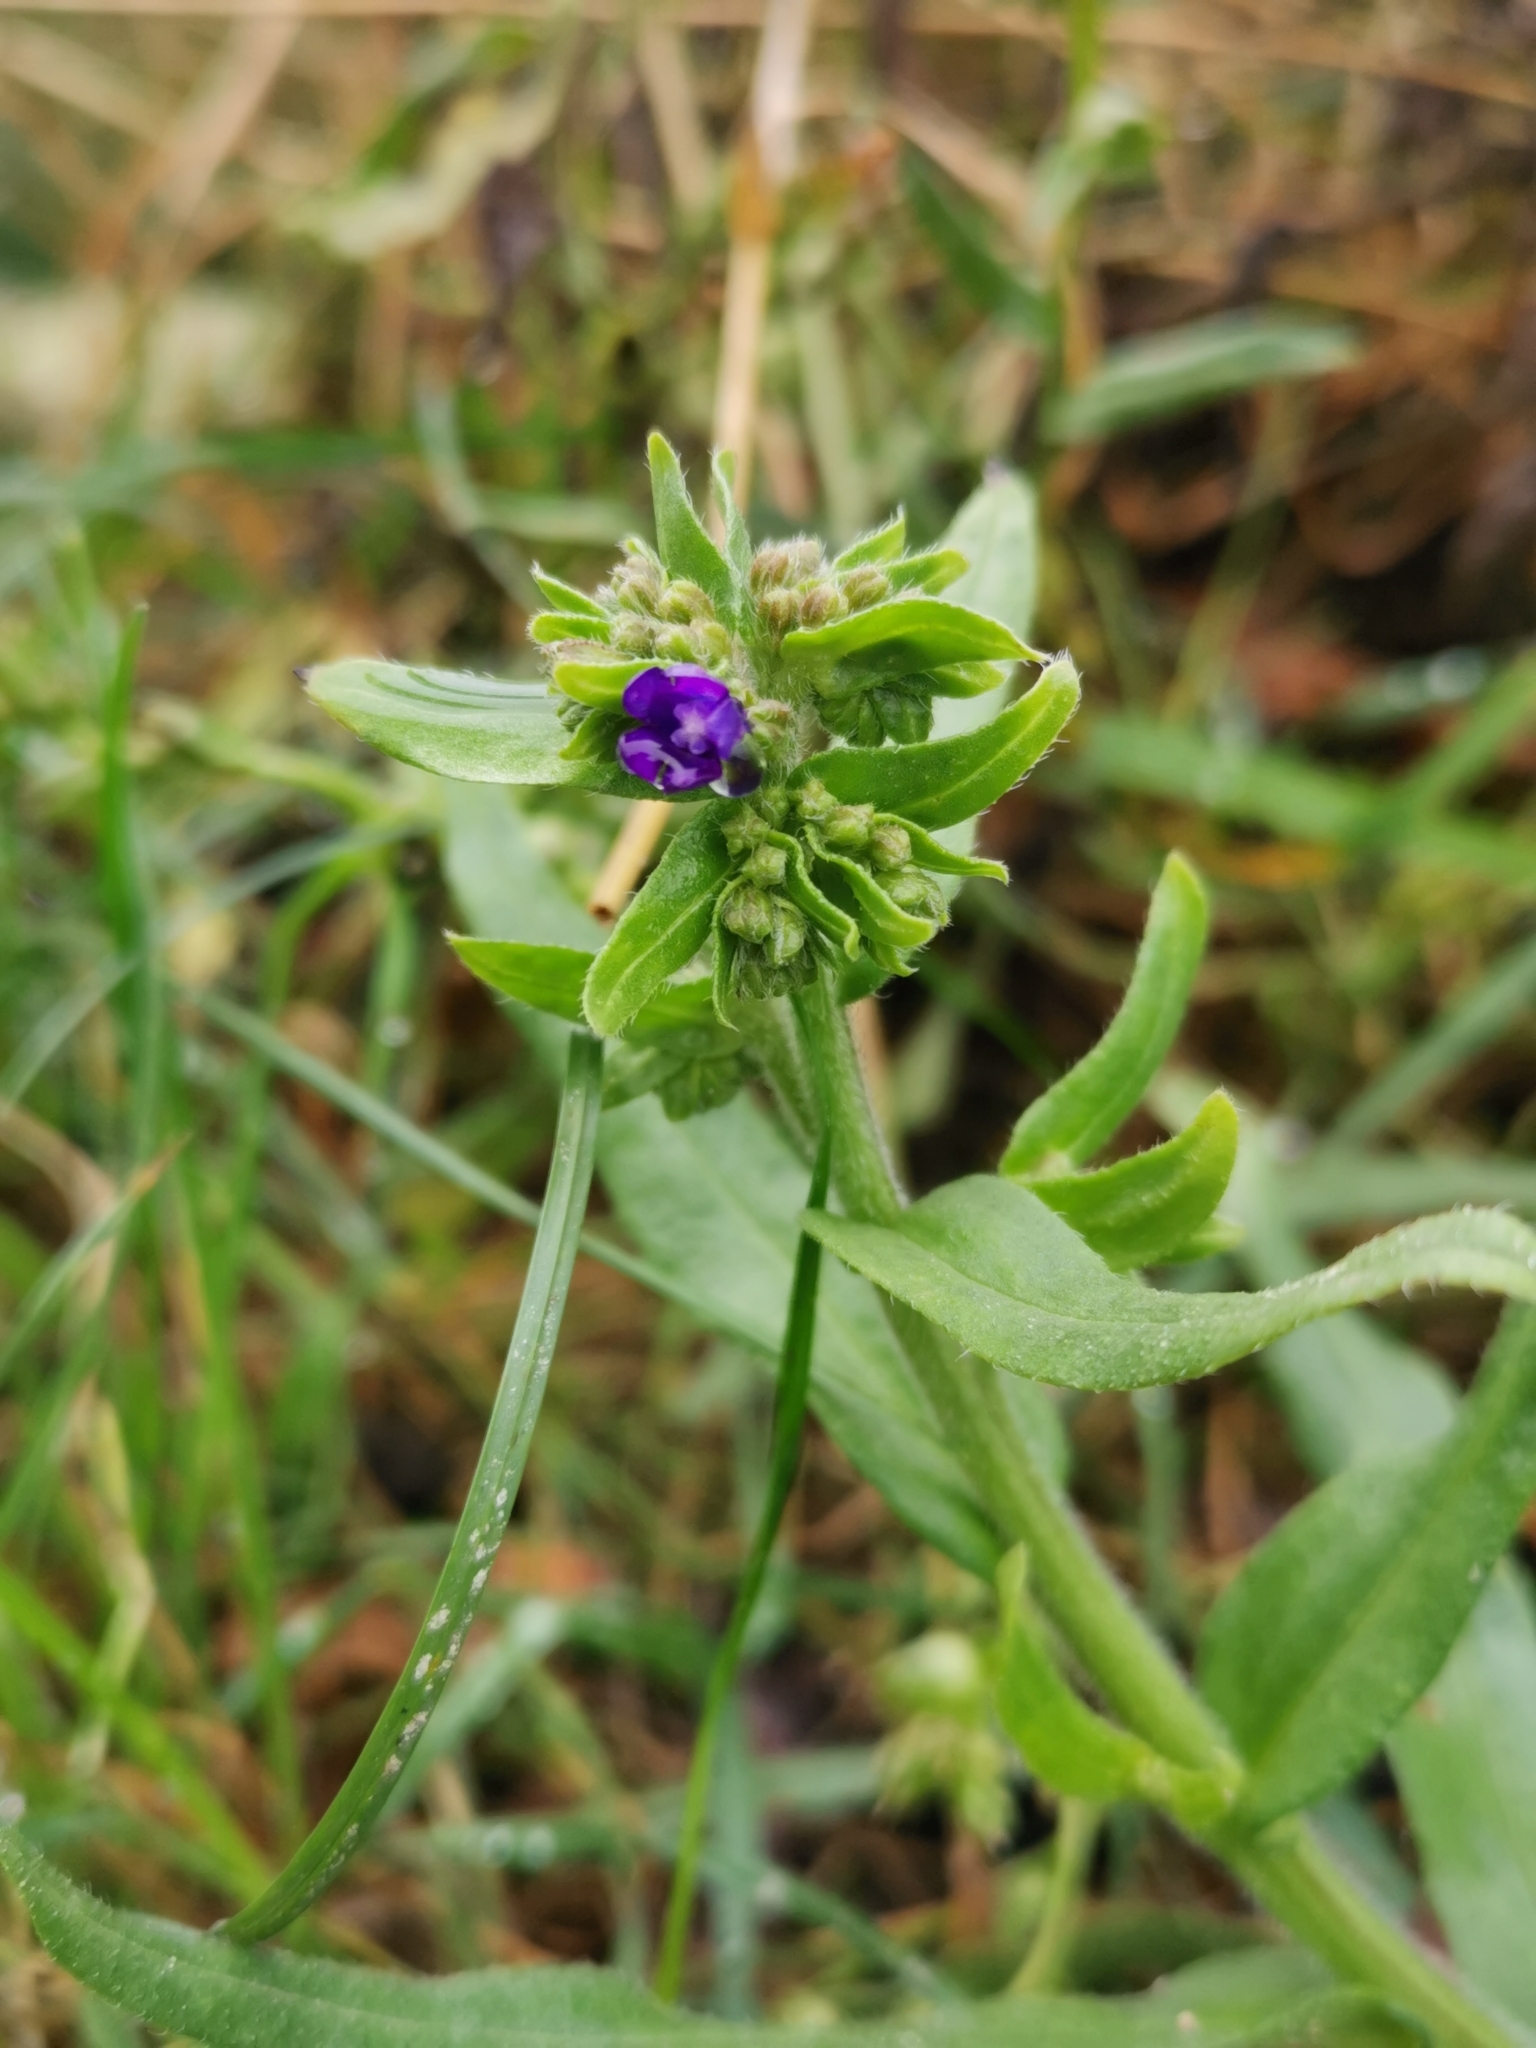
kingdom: Plantae
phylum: Tracheophyta
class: Magnoliopsida
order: Boraginales
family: Boraginaceae
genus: Anchusa
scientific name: Anchusa officinalis
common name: Alkanet
